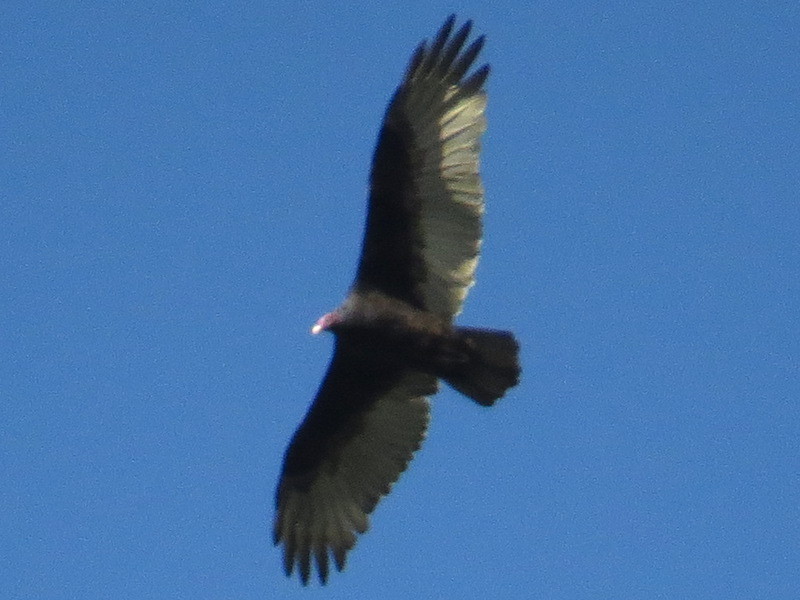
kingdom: Animalia
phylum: Chordata
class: Aves
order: Accipitriformes
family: Cathartidae
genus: Cathartes
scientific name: Cathartes aura
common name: Turkey vulture
